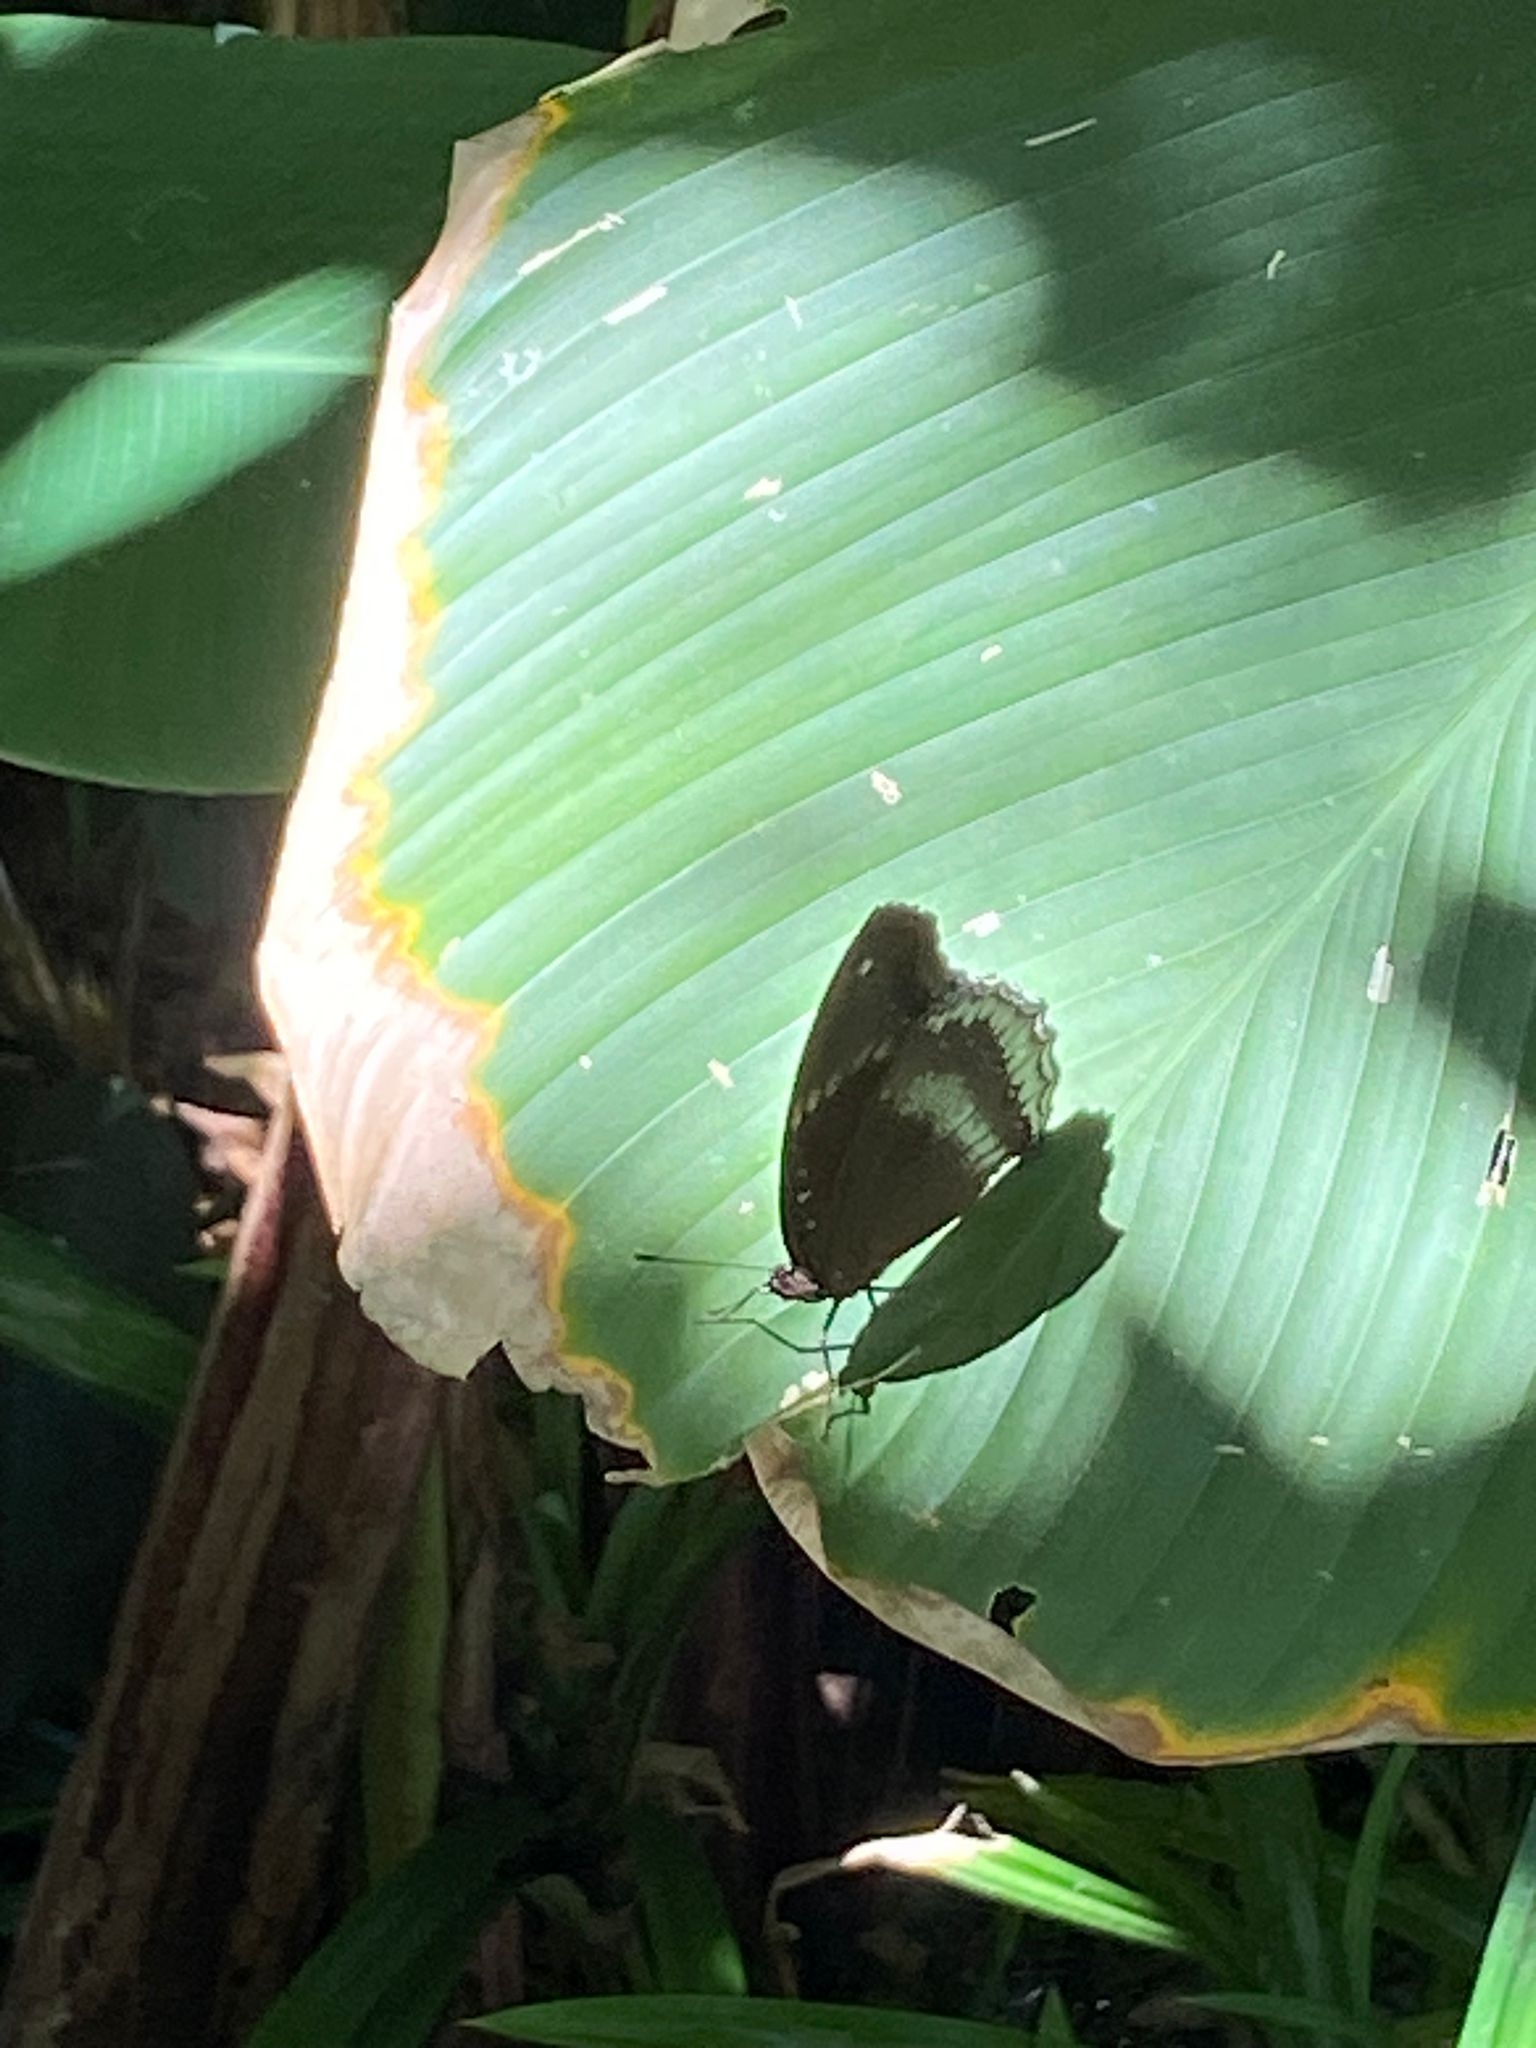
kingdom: Animalia
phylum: Arthropoda
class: Insecta
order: Lepidoptera
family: Nymphalidae
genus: Hypolimnas
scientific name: Hypolimnas bolina
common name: Great eggfly
